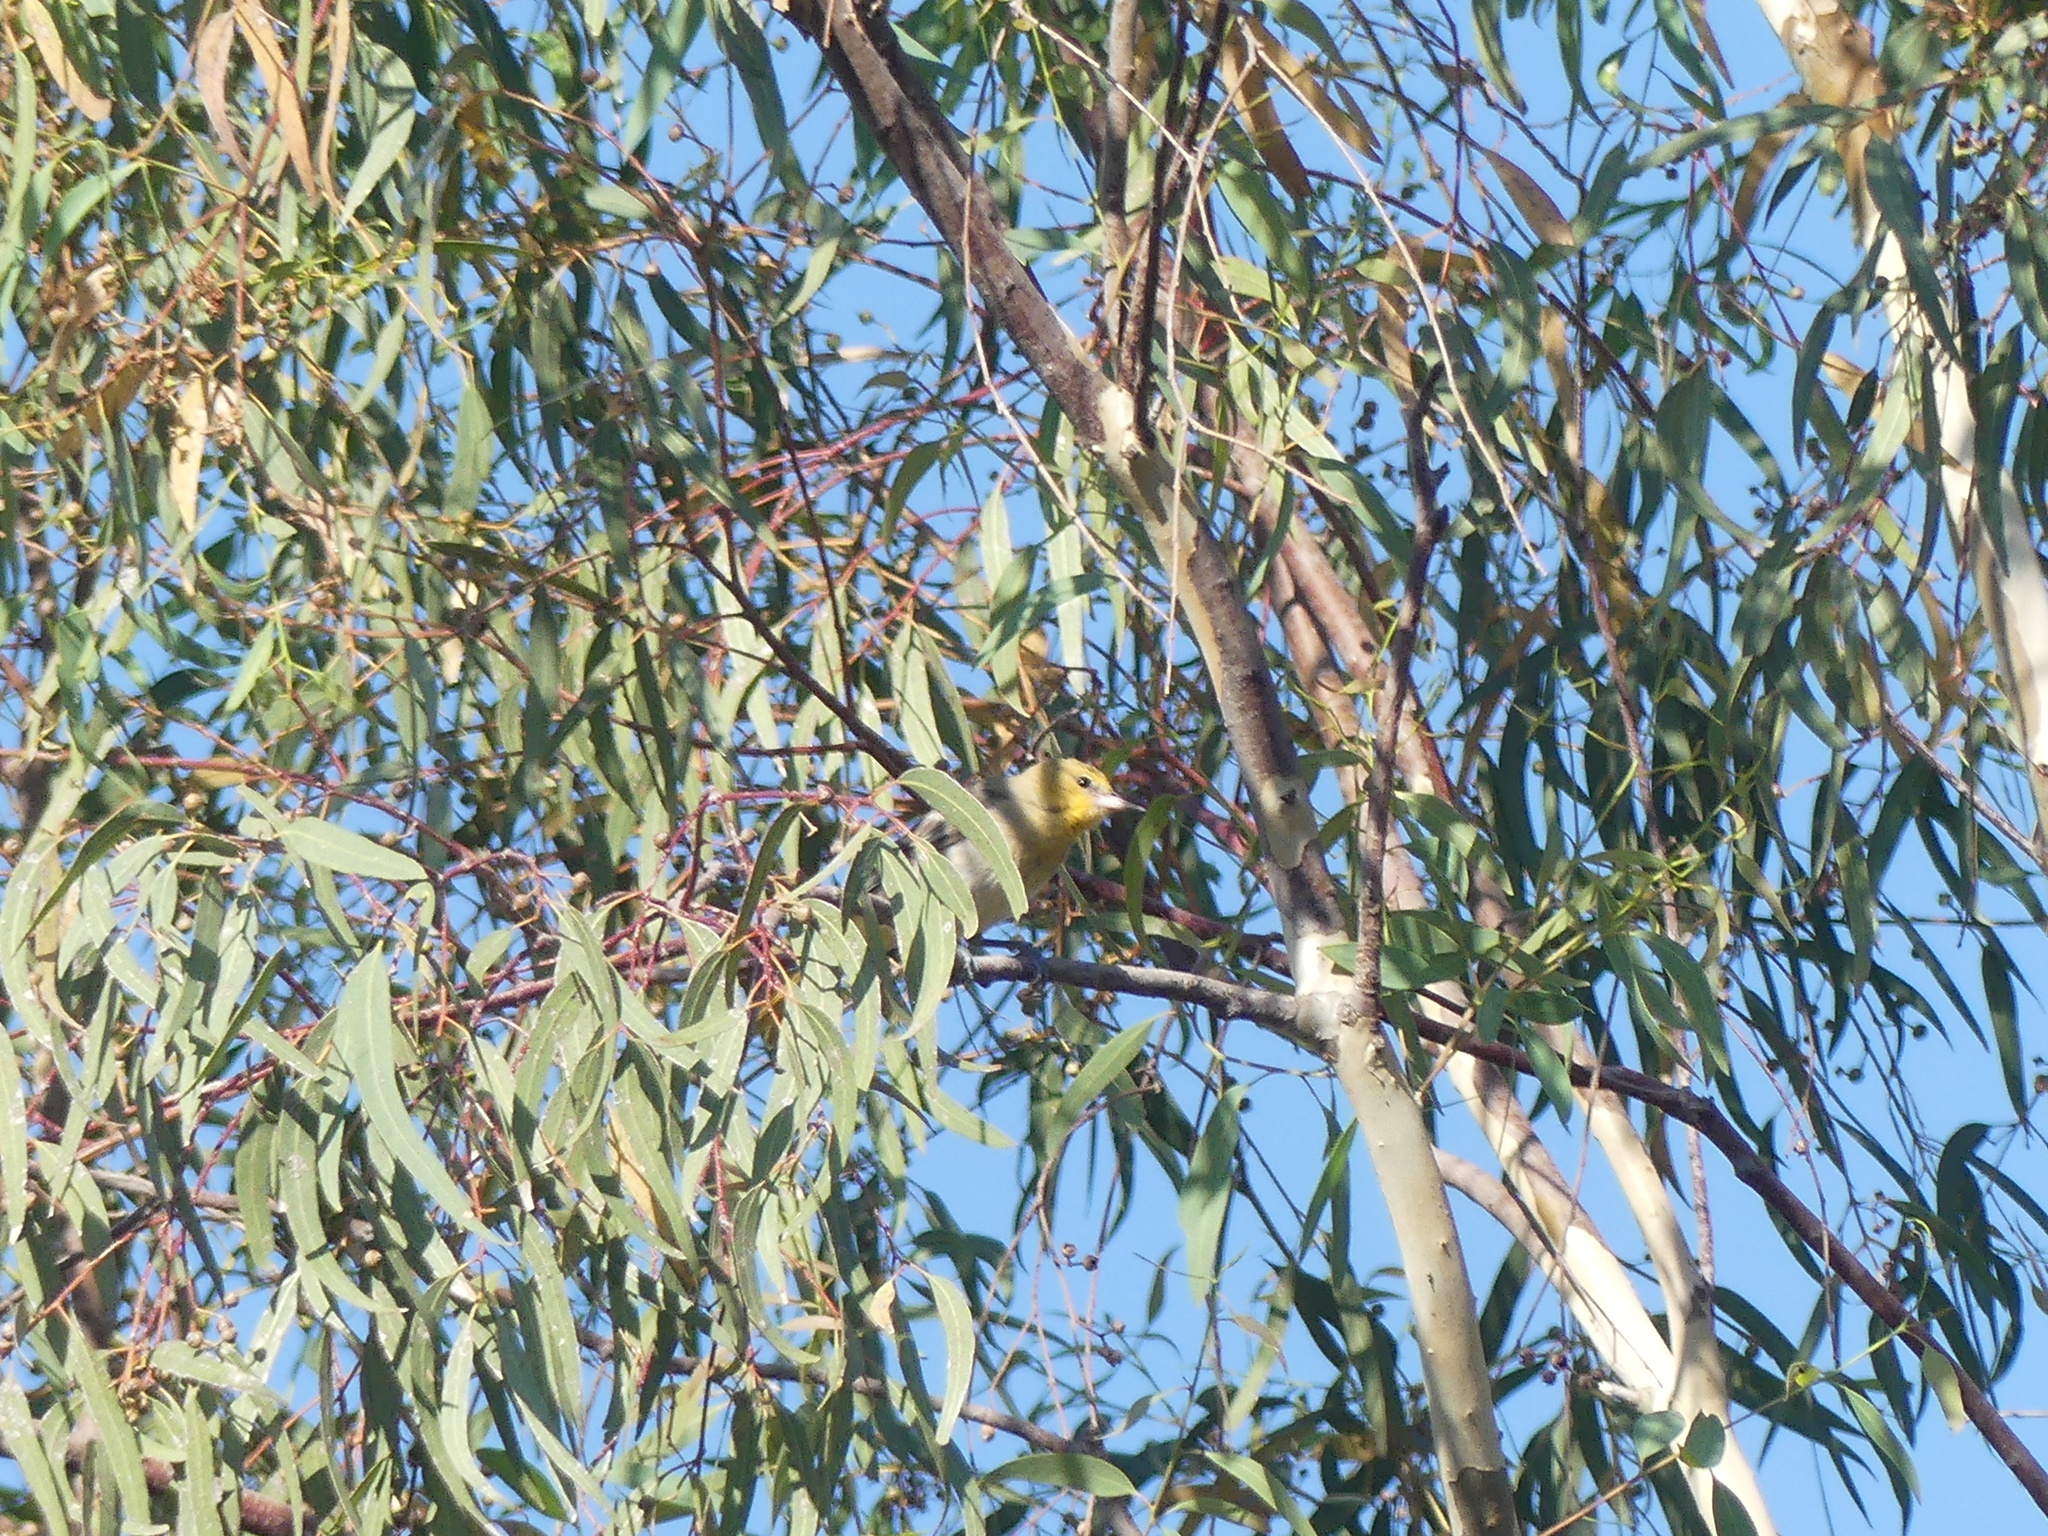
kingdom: Animalia
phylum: Chordata
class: Aves
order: Passeriformes
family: Icteridae
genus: Icterus
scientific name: Icterus bullockii
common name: Bullock's oriole
